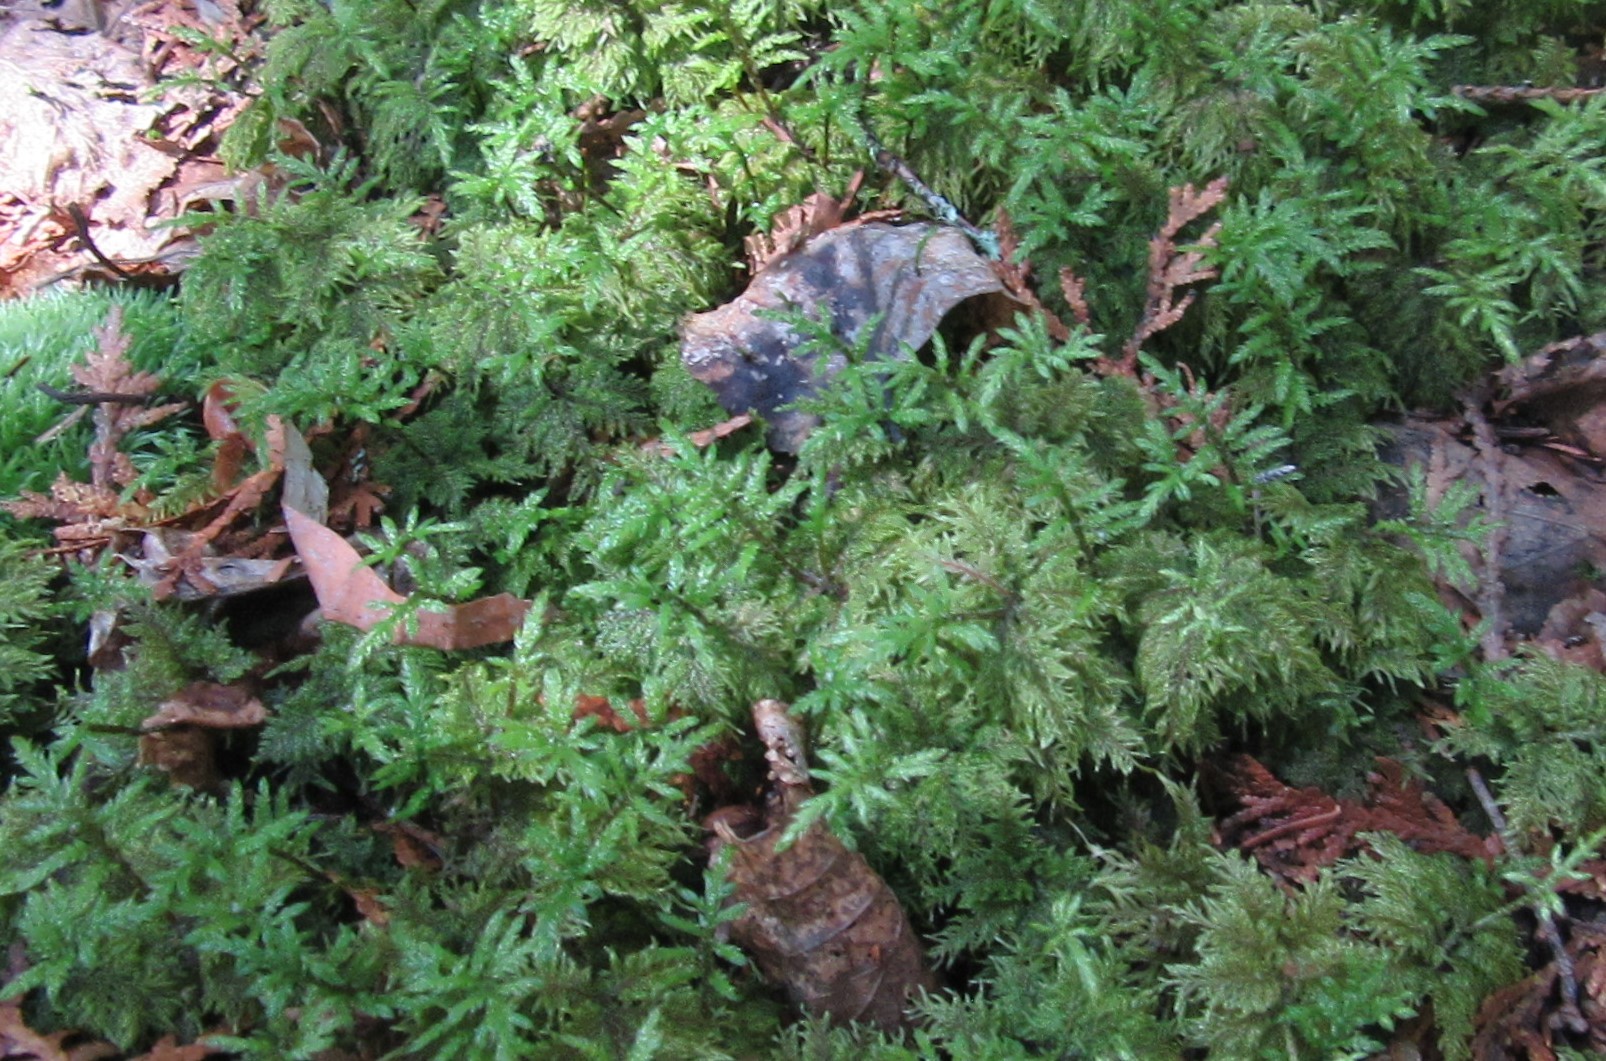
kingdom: Plantae
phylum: Bryophyta
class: Bryopsida
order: Hypnales
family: Hylocomiaceae
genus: Hylocomium
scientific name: Hylocomium splendens
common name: Stairstep moss
